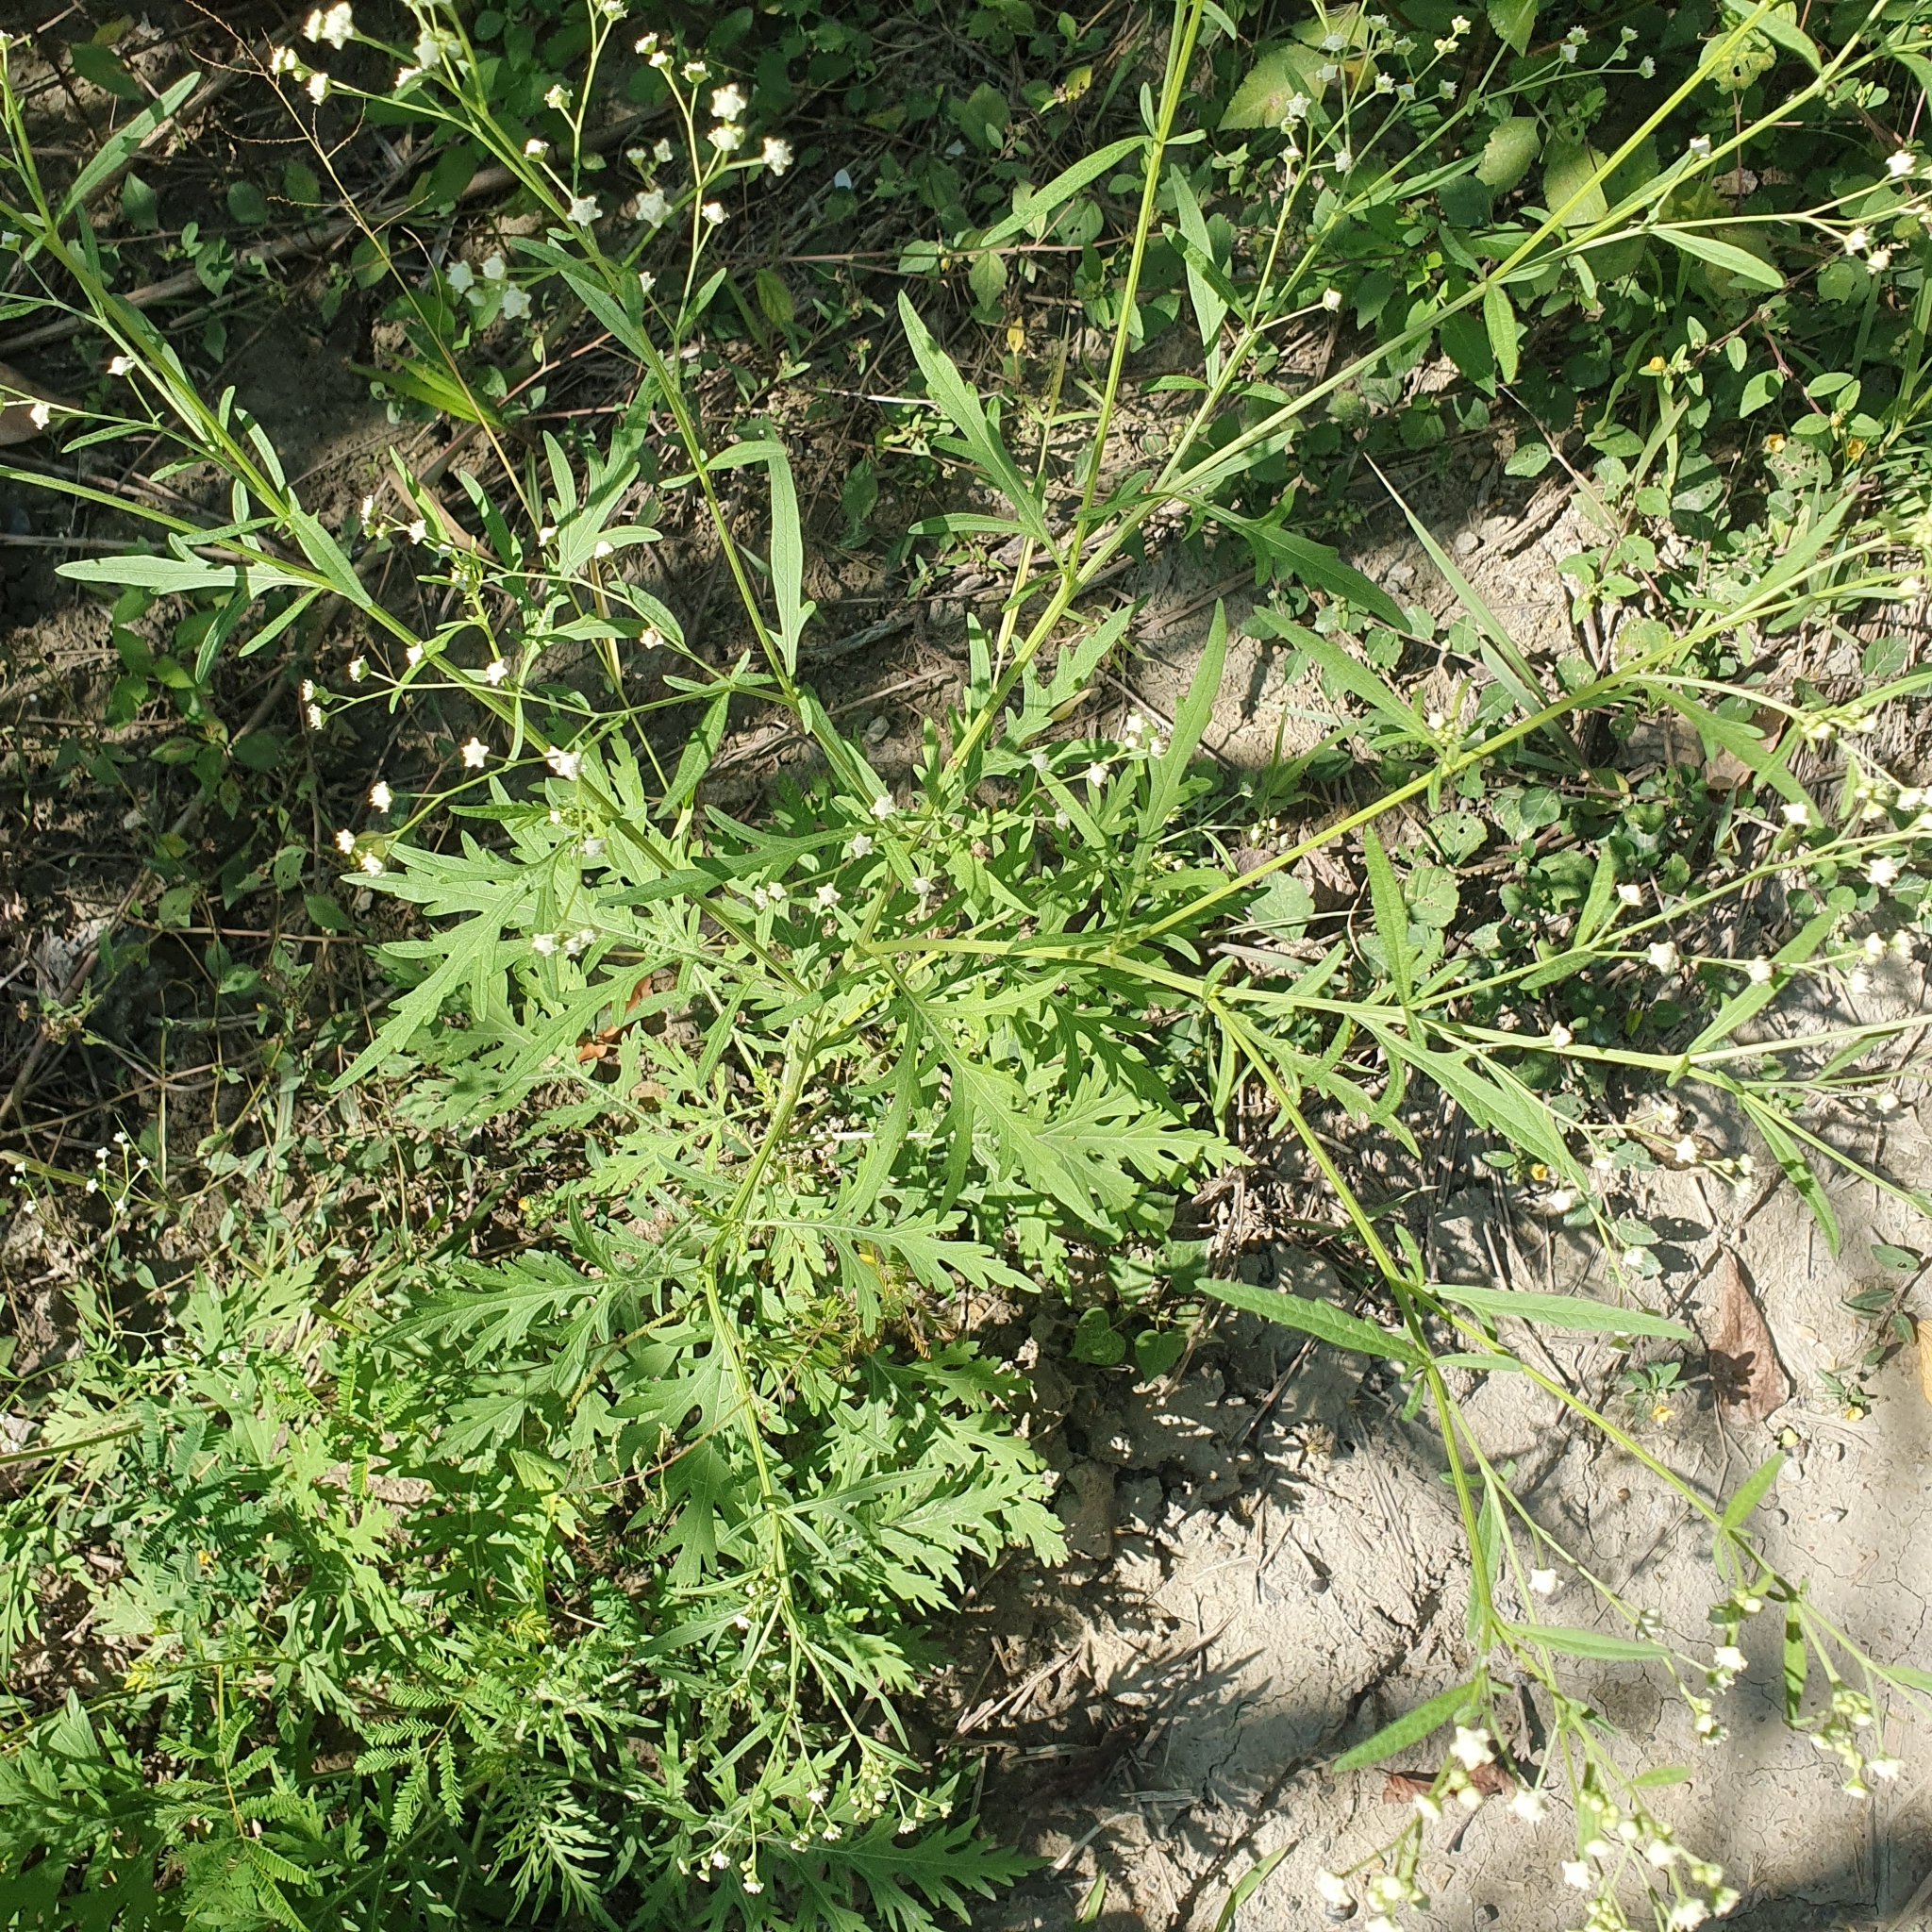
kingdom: Plantae
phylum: Tracheophyta
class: Magnoliopsida
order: Asterales
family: Asteraceae
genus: Parthenium
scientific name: Parthenium hysterophorus
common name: Santa maria feverfew
